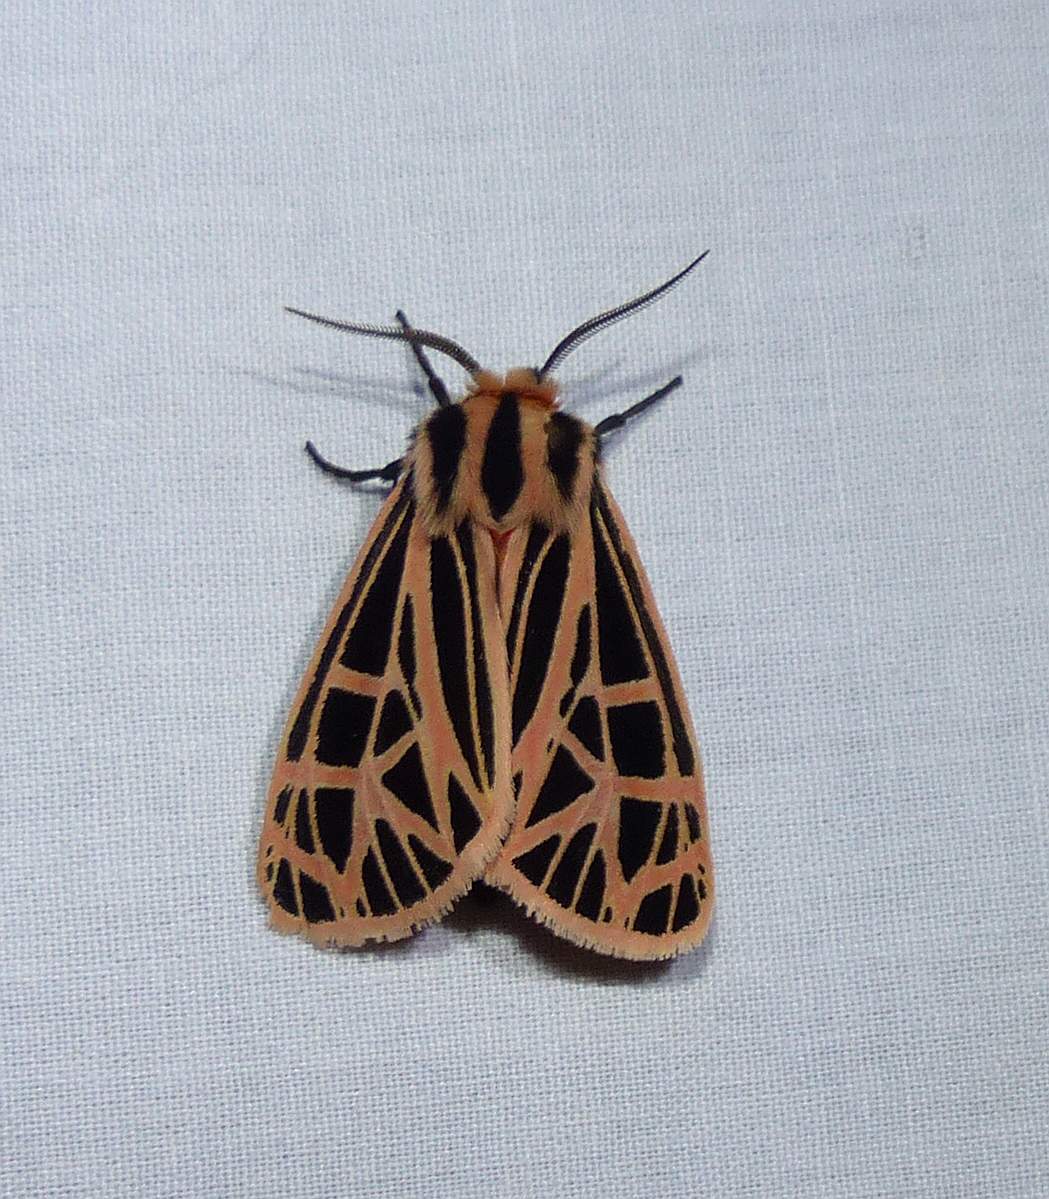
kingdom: Animalia
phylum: Arthropoda
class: Insecta
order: Lepidoptera
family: Erebidae
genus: Grammia
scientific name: Grammia parthenice
